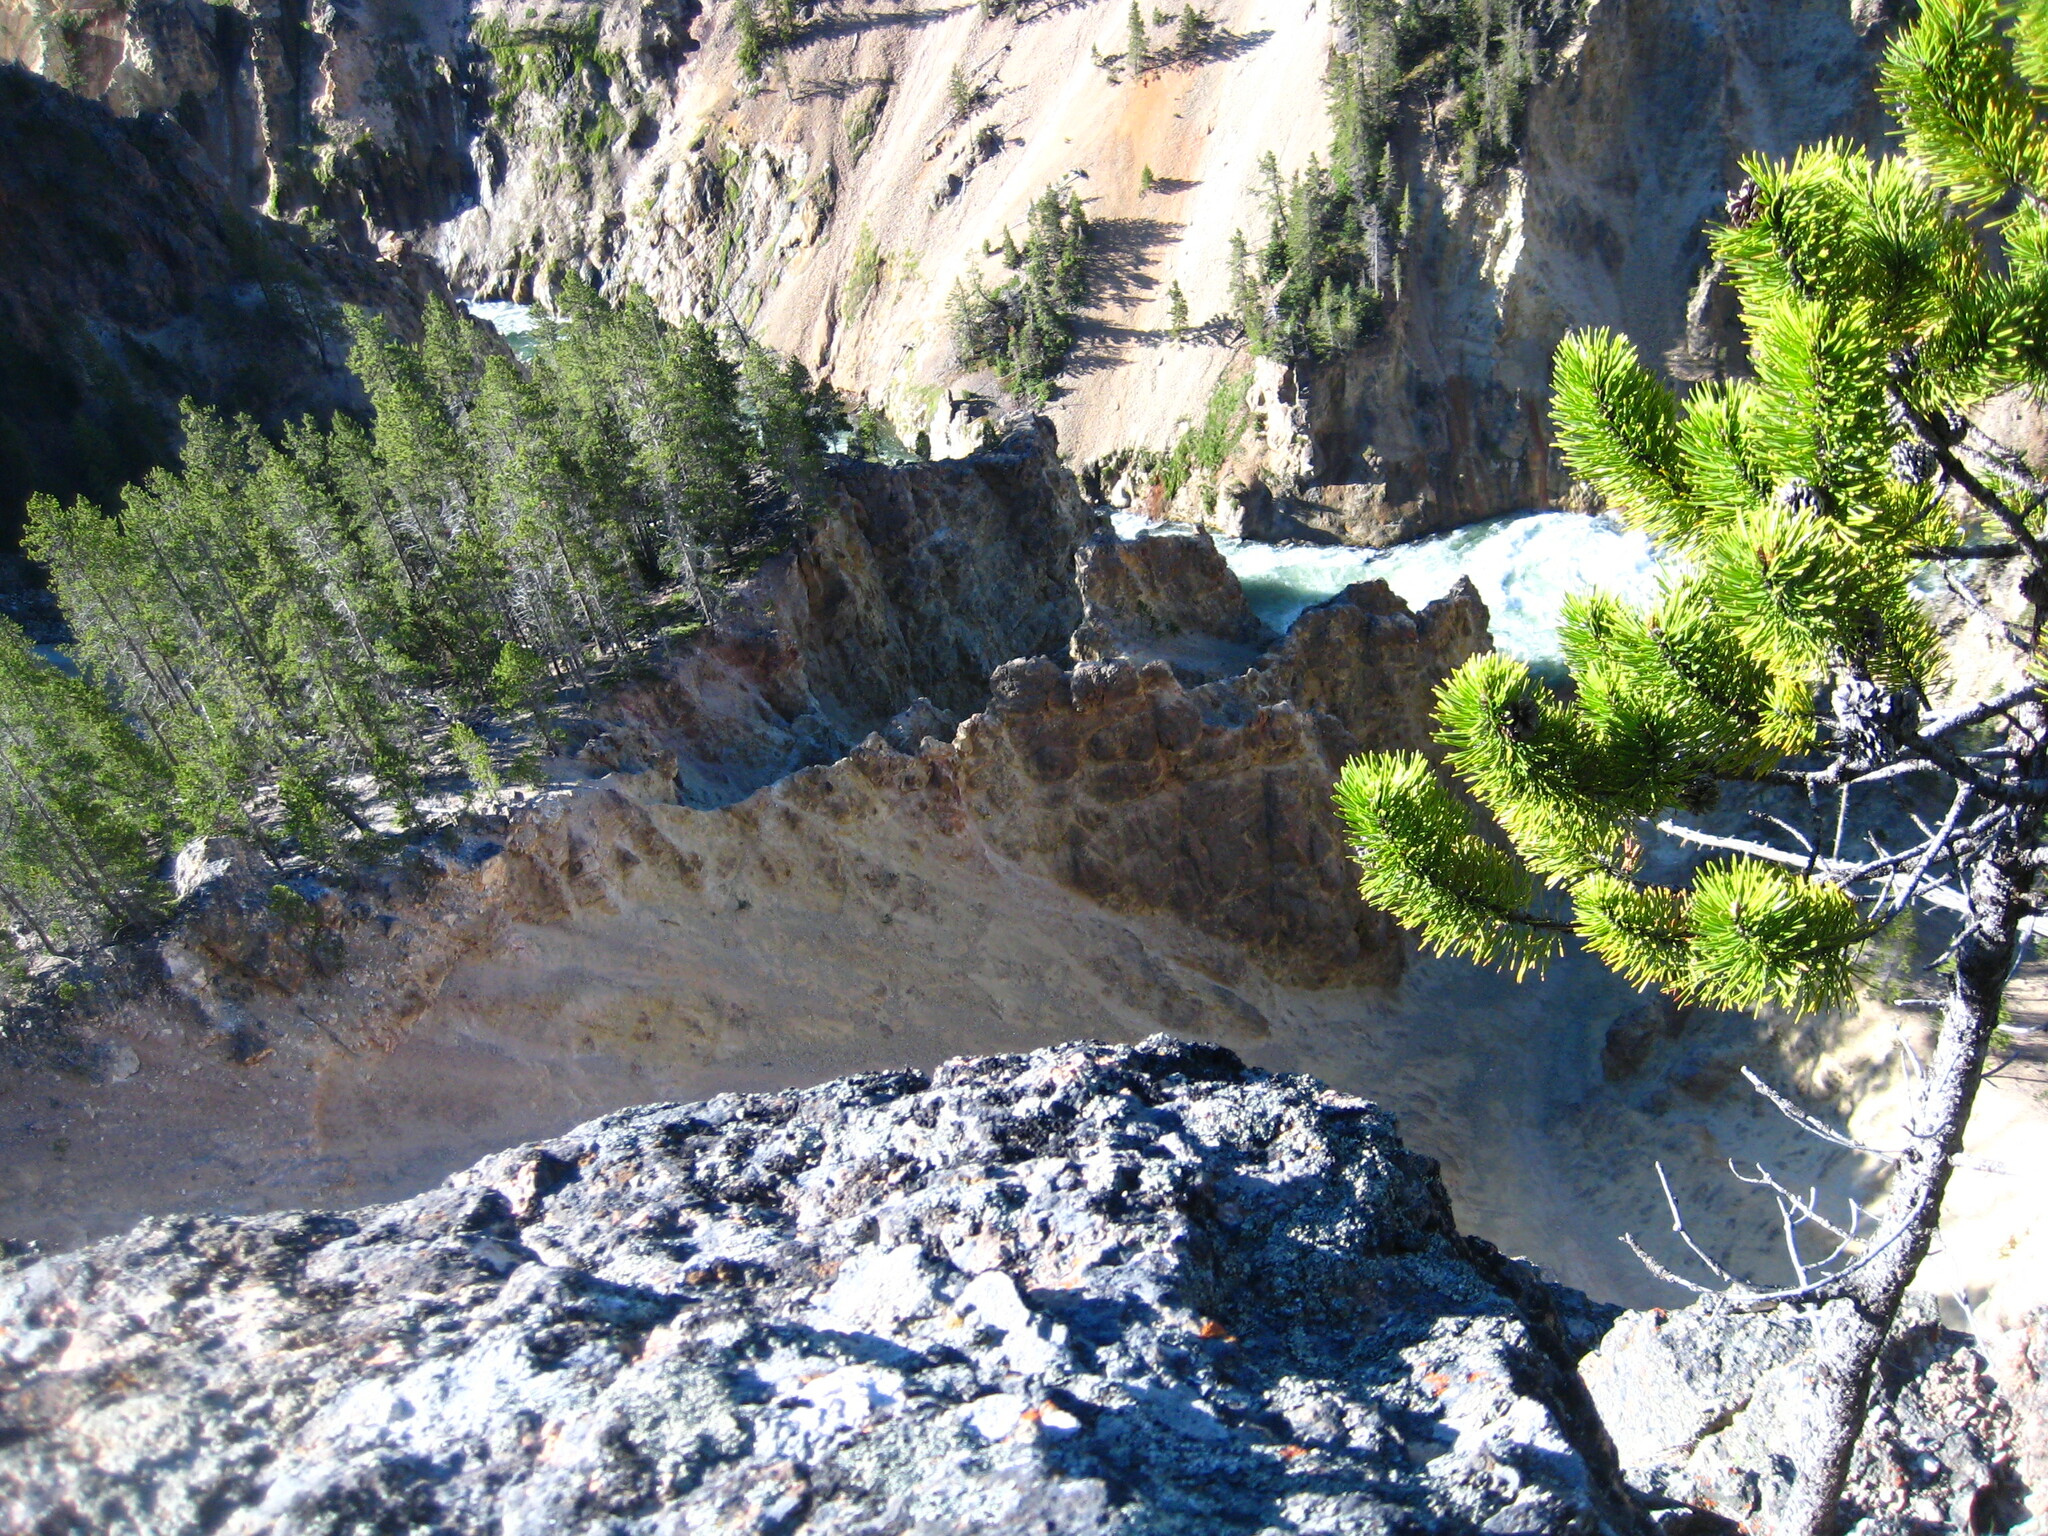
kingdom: Plantae
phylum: Tracheophyta
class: Pinopsida
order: Pinales
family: Pinaceae
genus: Pinus
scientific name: Pinus contorta
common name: Lodgepole pine
